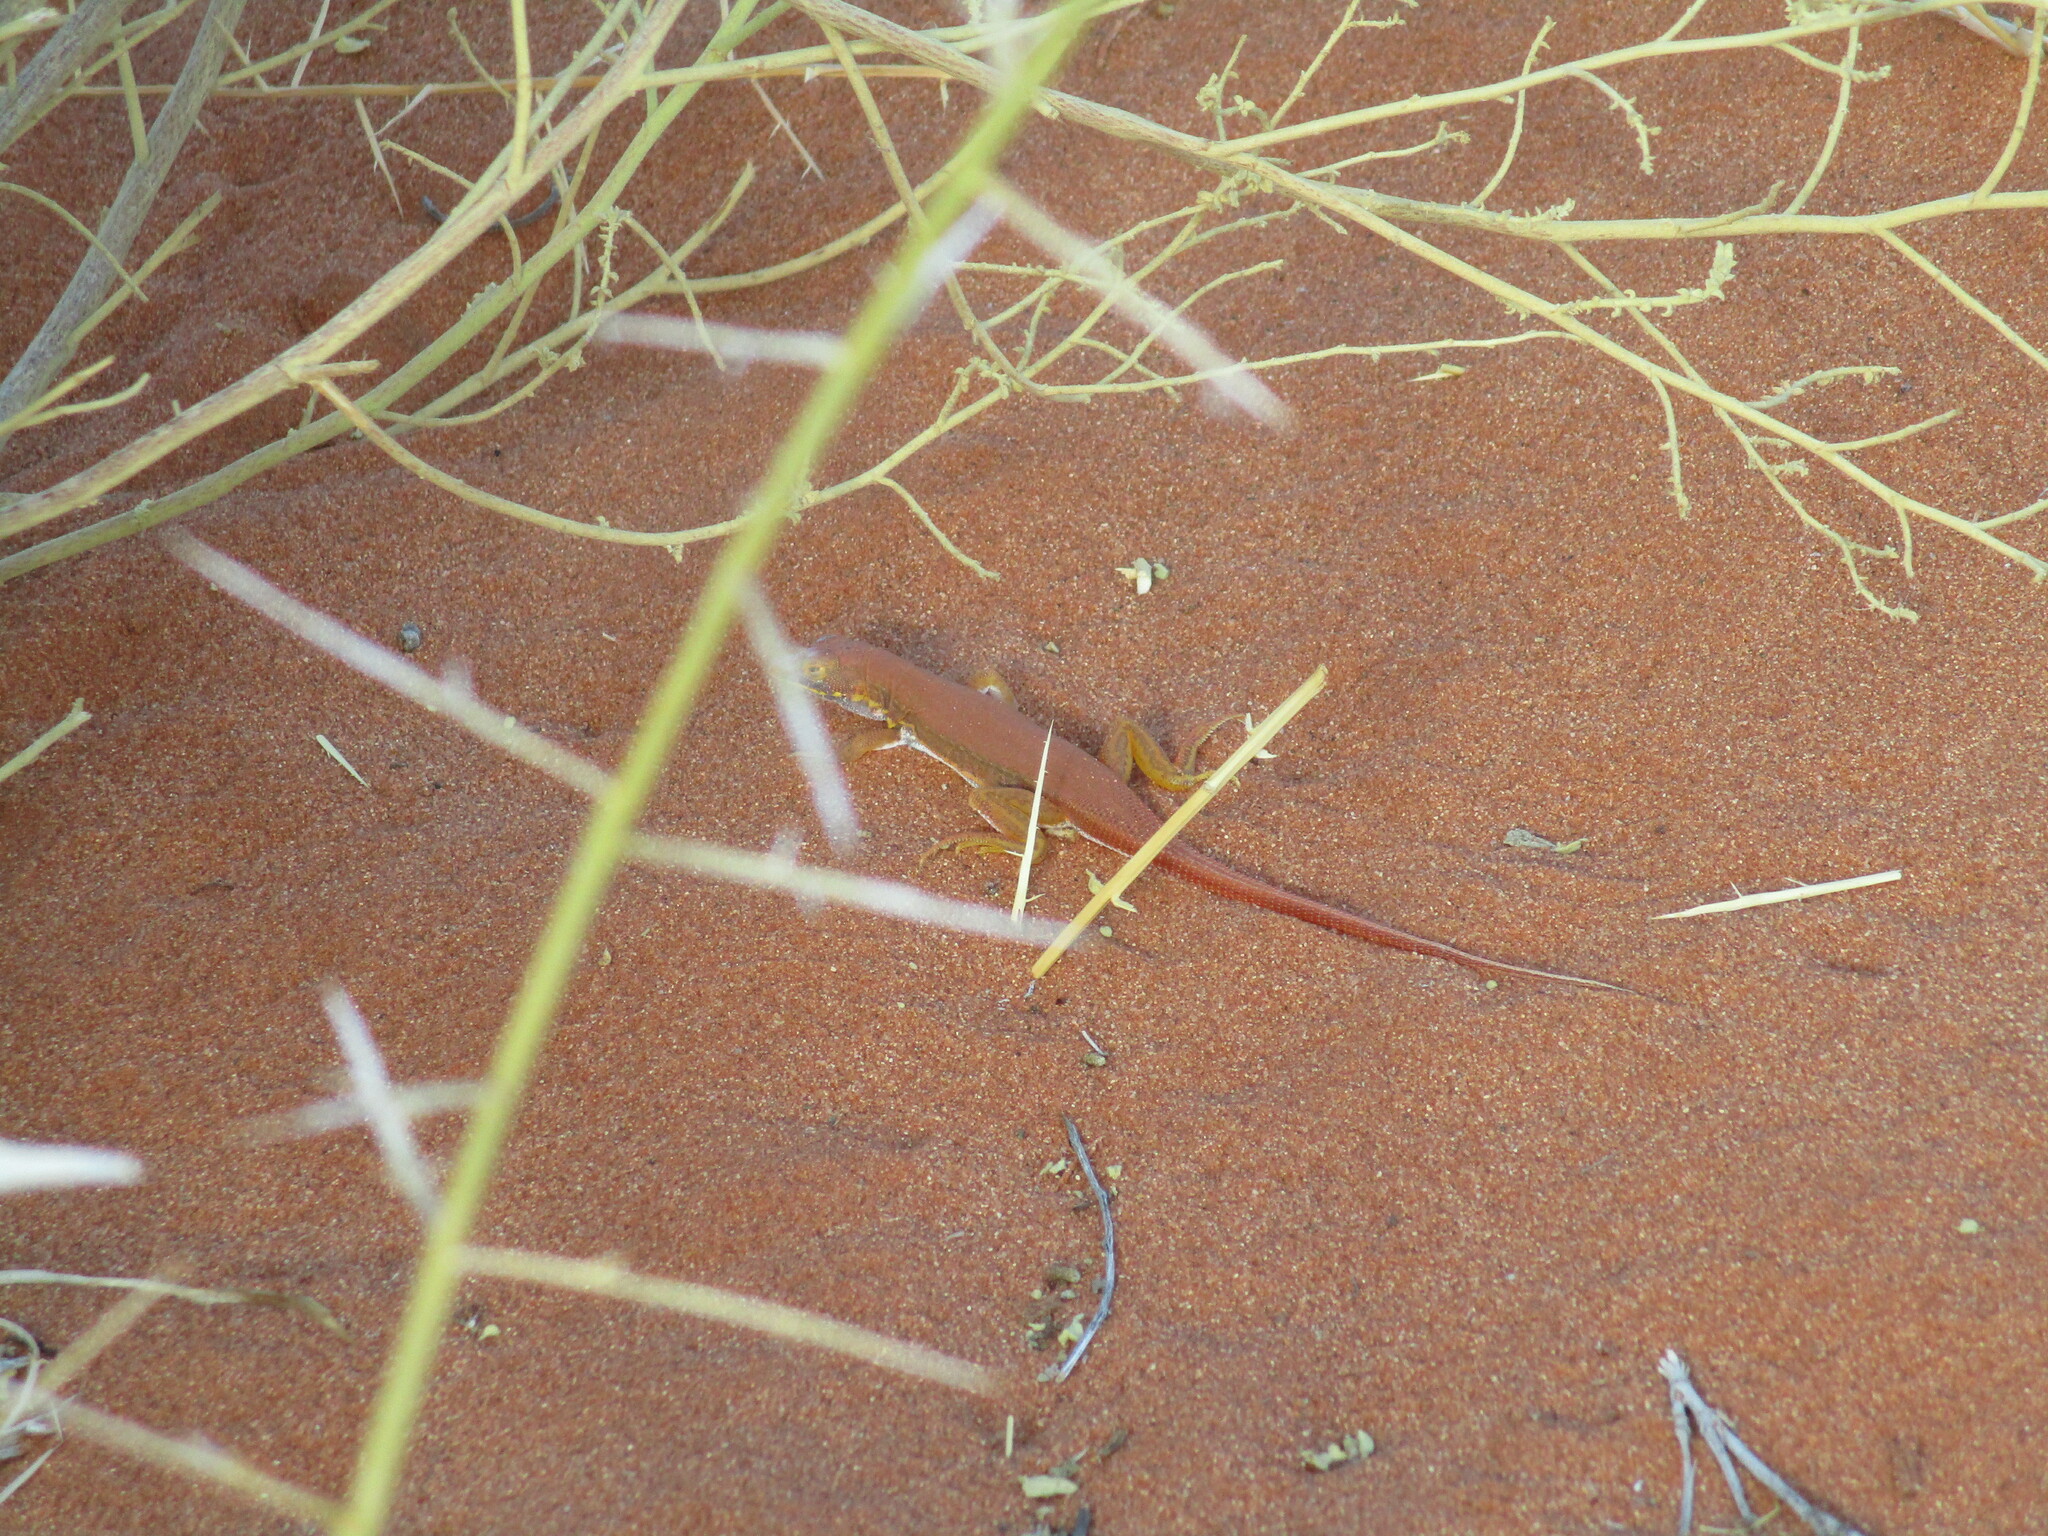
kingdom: Animalia
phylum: Chordata
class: Squamata
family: Lacertidae
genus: Meroles
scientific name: Meroles cuneirostris
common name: Wedge-snouted desert lizard
